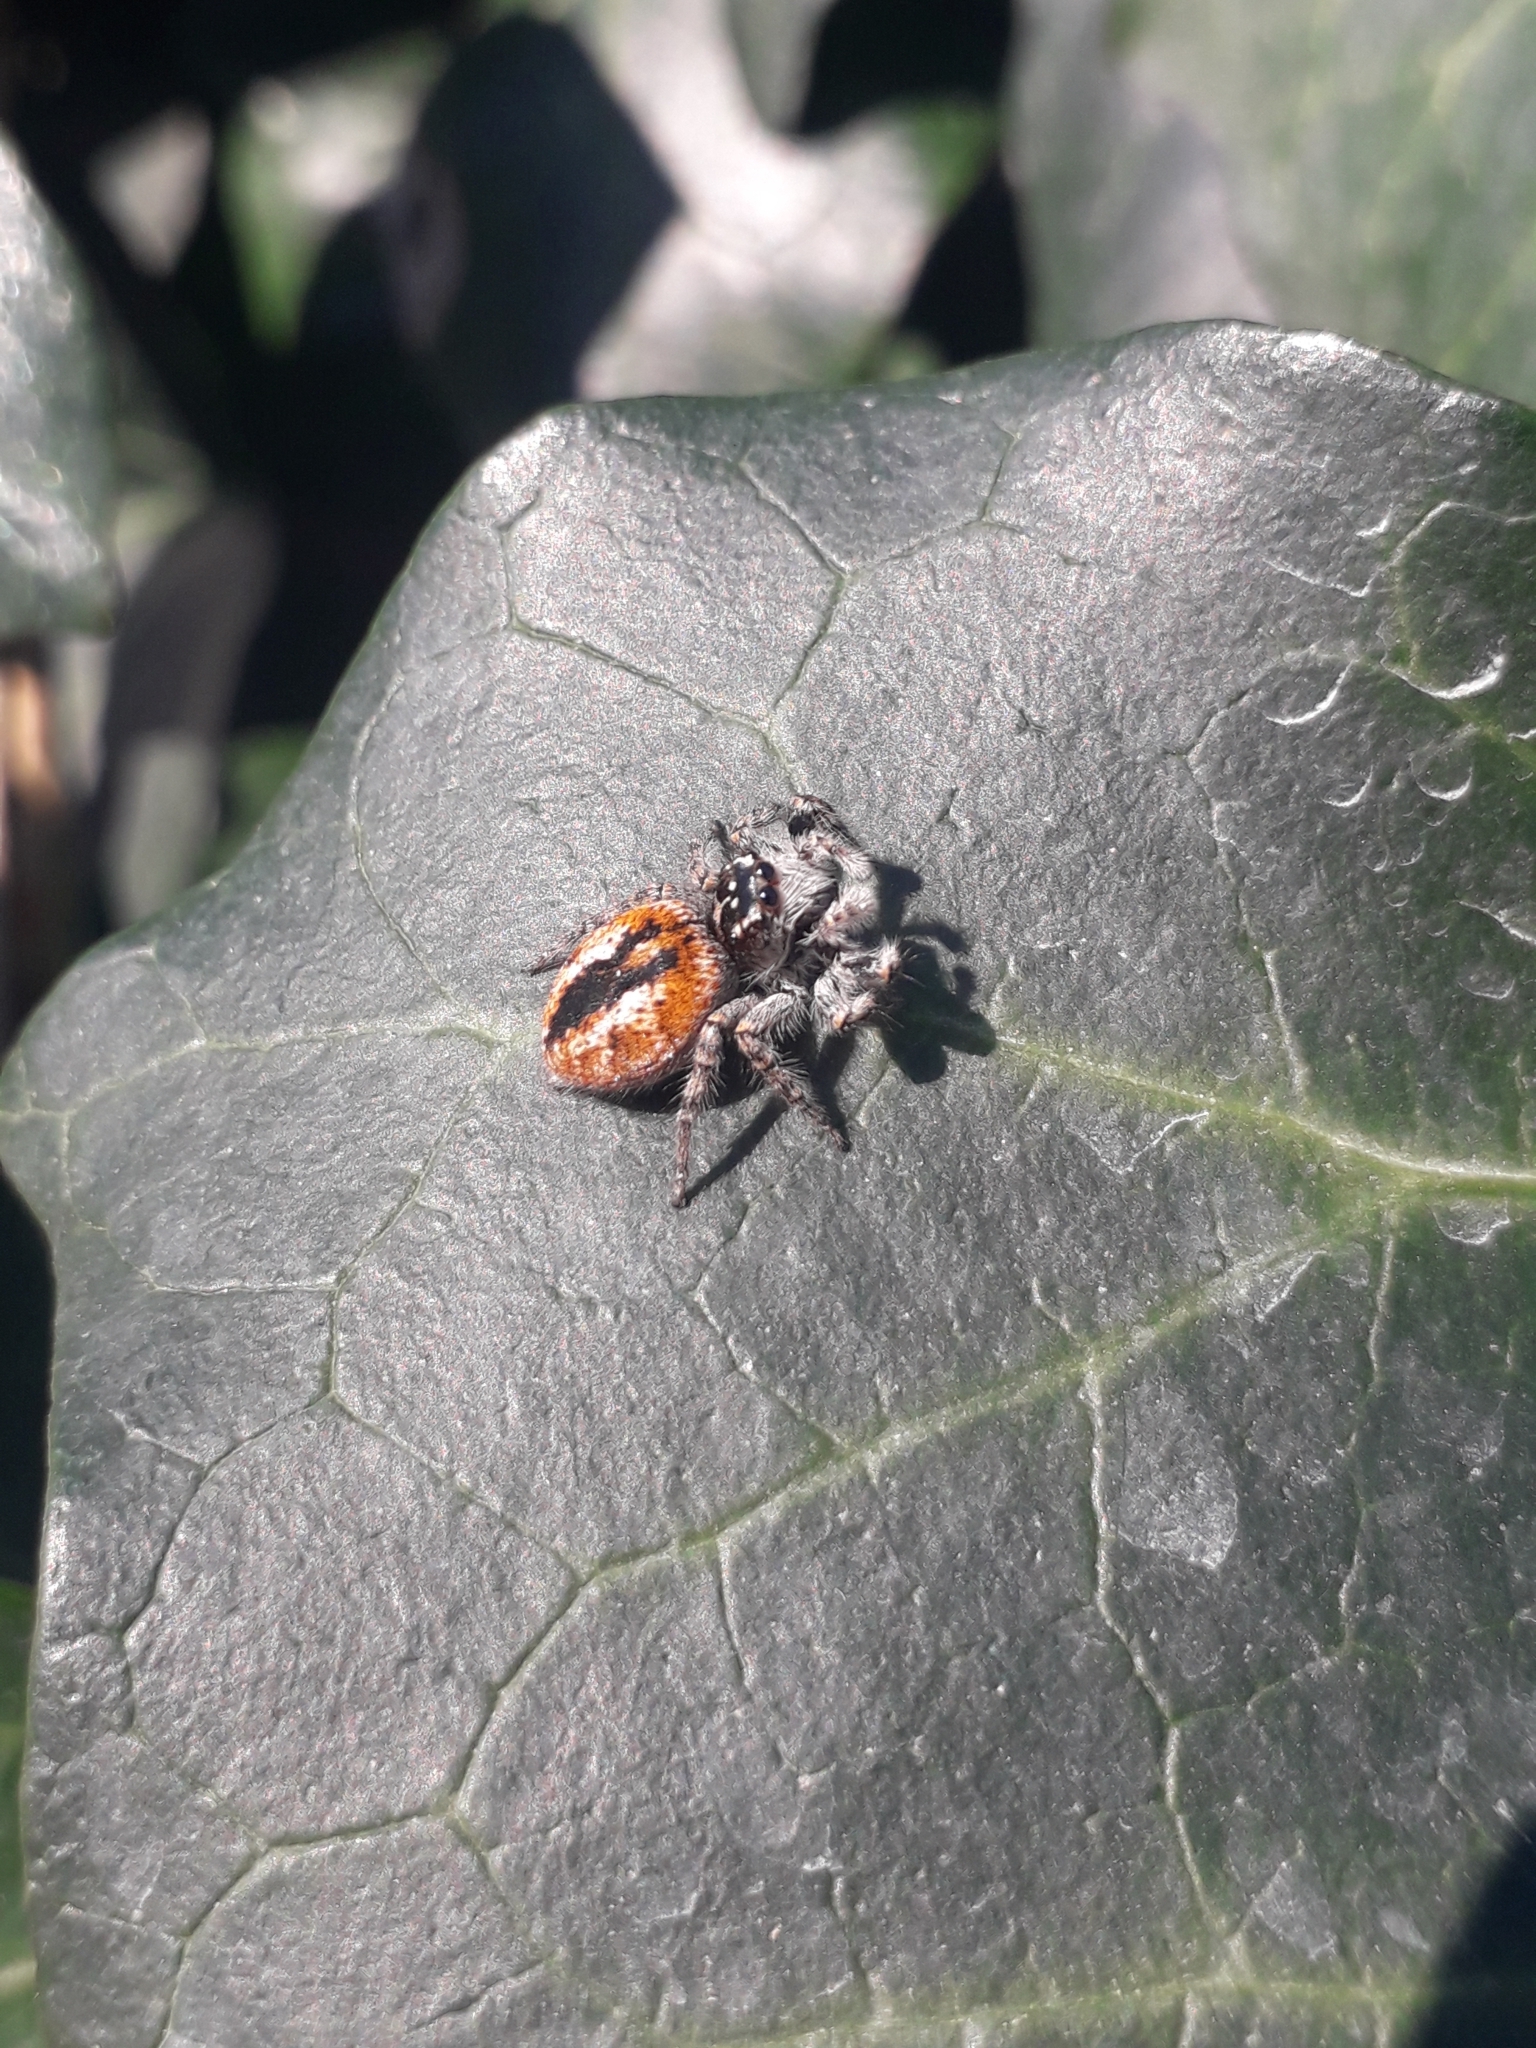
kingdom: Animalia
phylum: Arthropoda
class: Arachnida
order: Araneae
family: Salticidae
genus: Philaeus
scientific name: Philaeus chrysops
